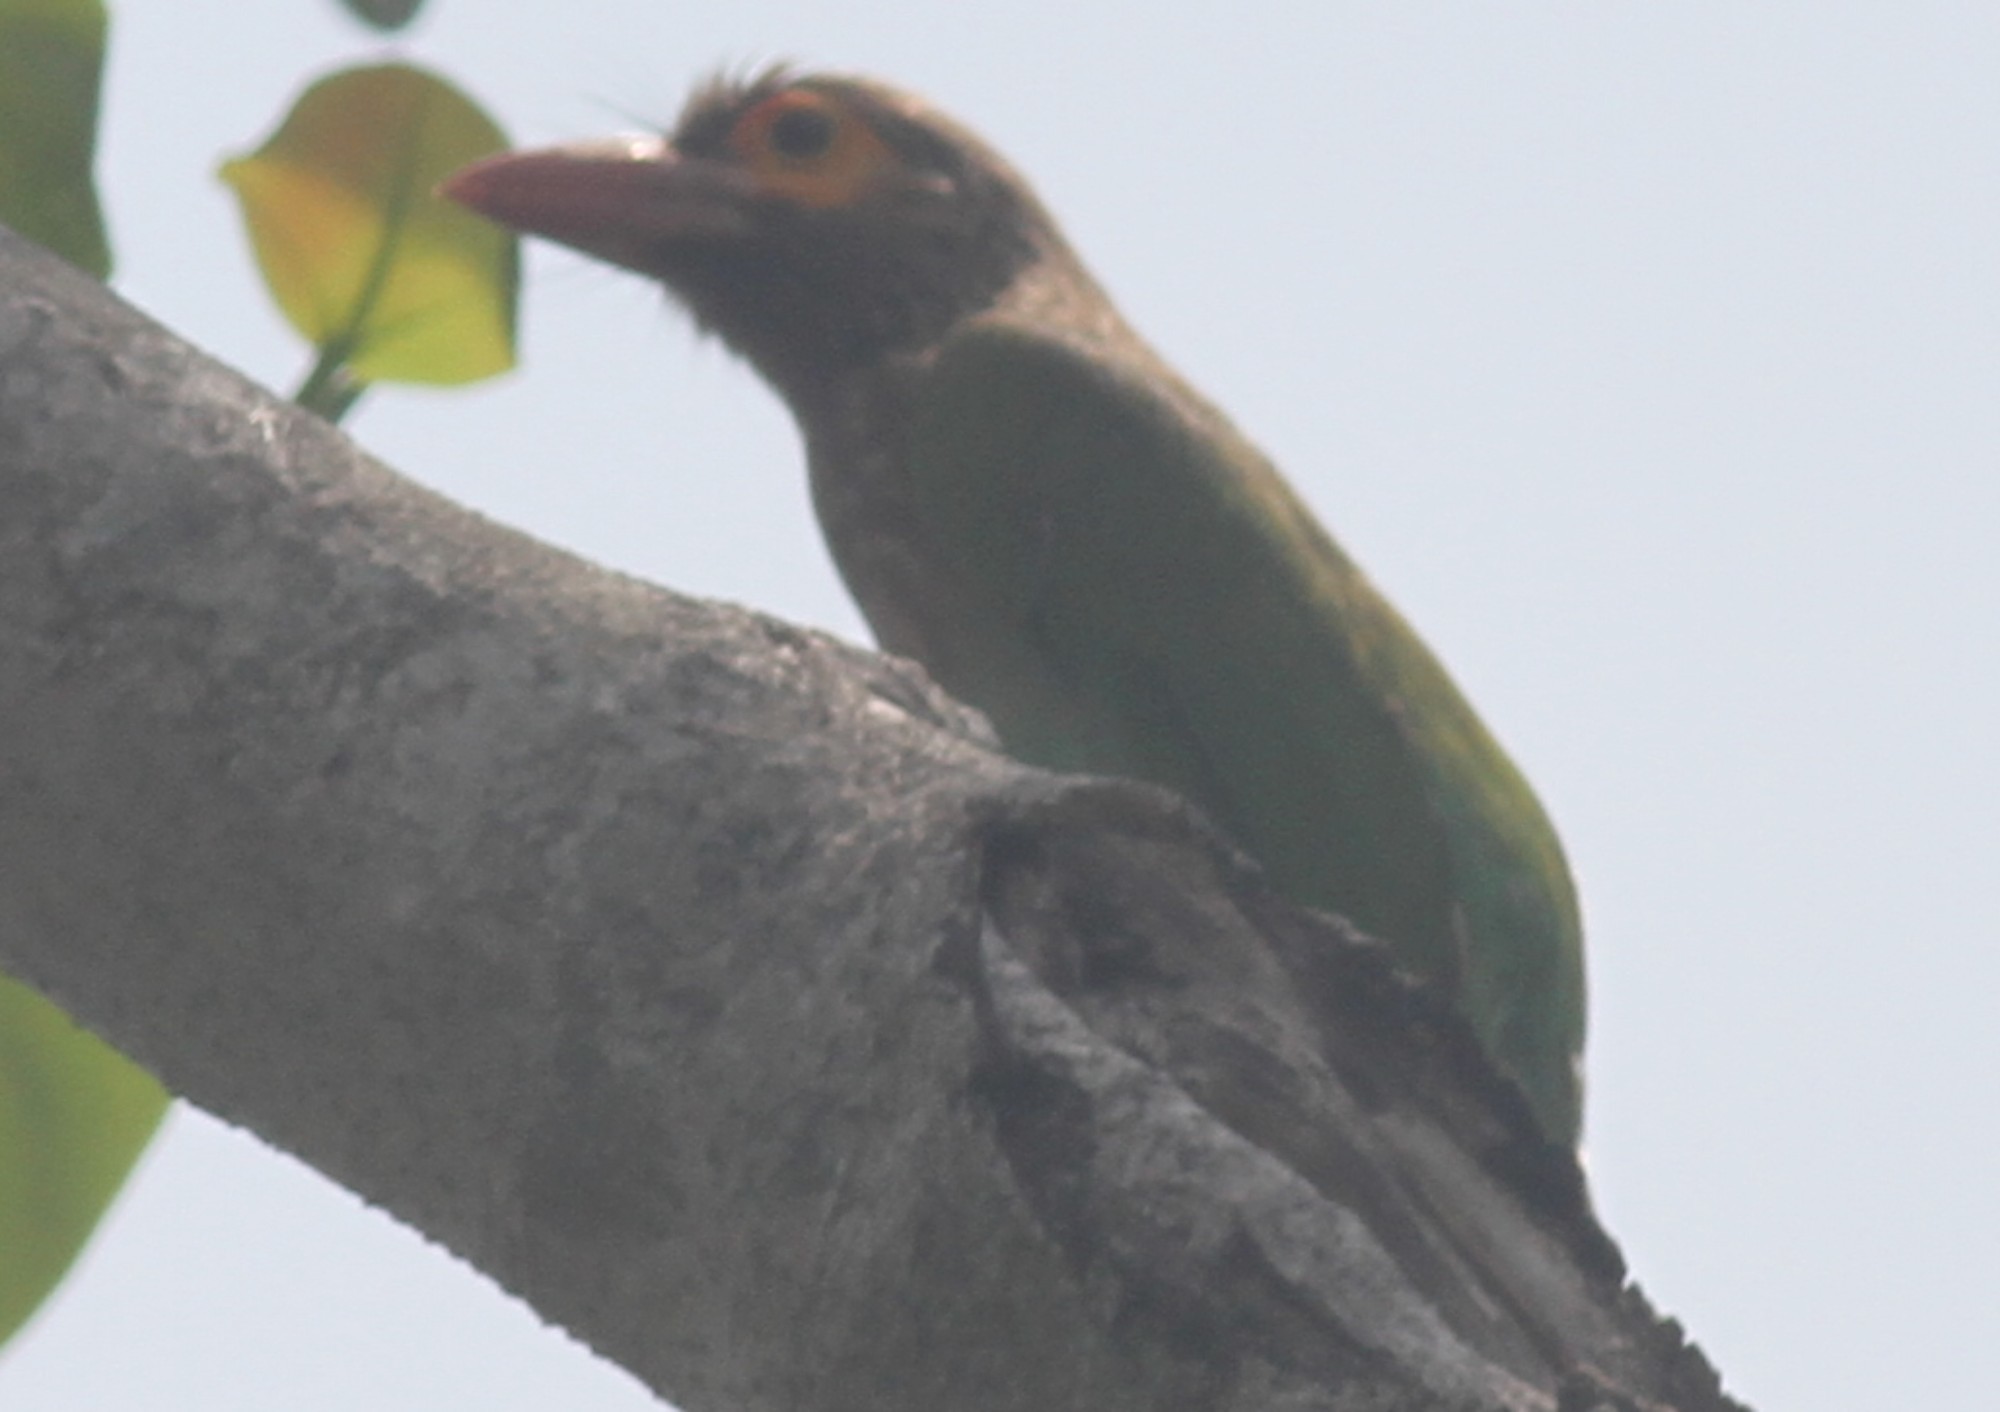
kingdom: Animalia
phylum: Chordata
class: Aves
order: Piciformes
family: Megalaimidae
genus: Psilopogon
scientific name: Psilopogon zeylanicus
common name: Brown-headed barbet
